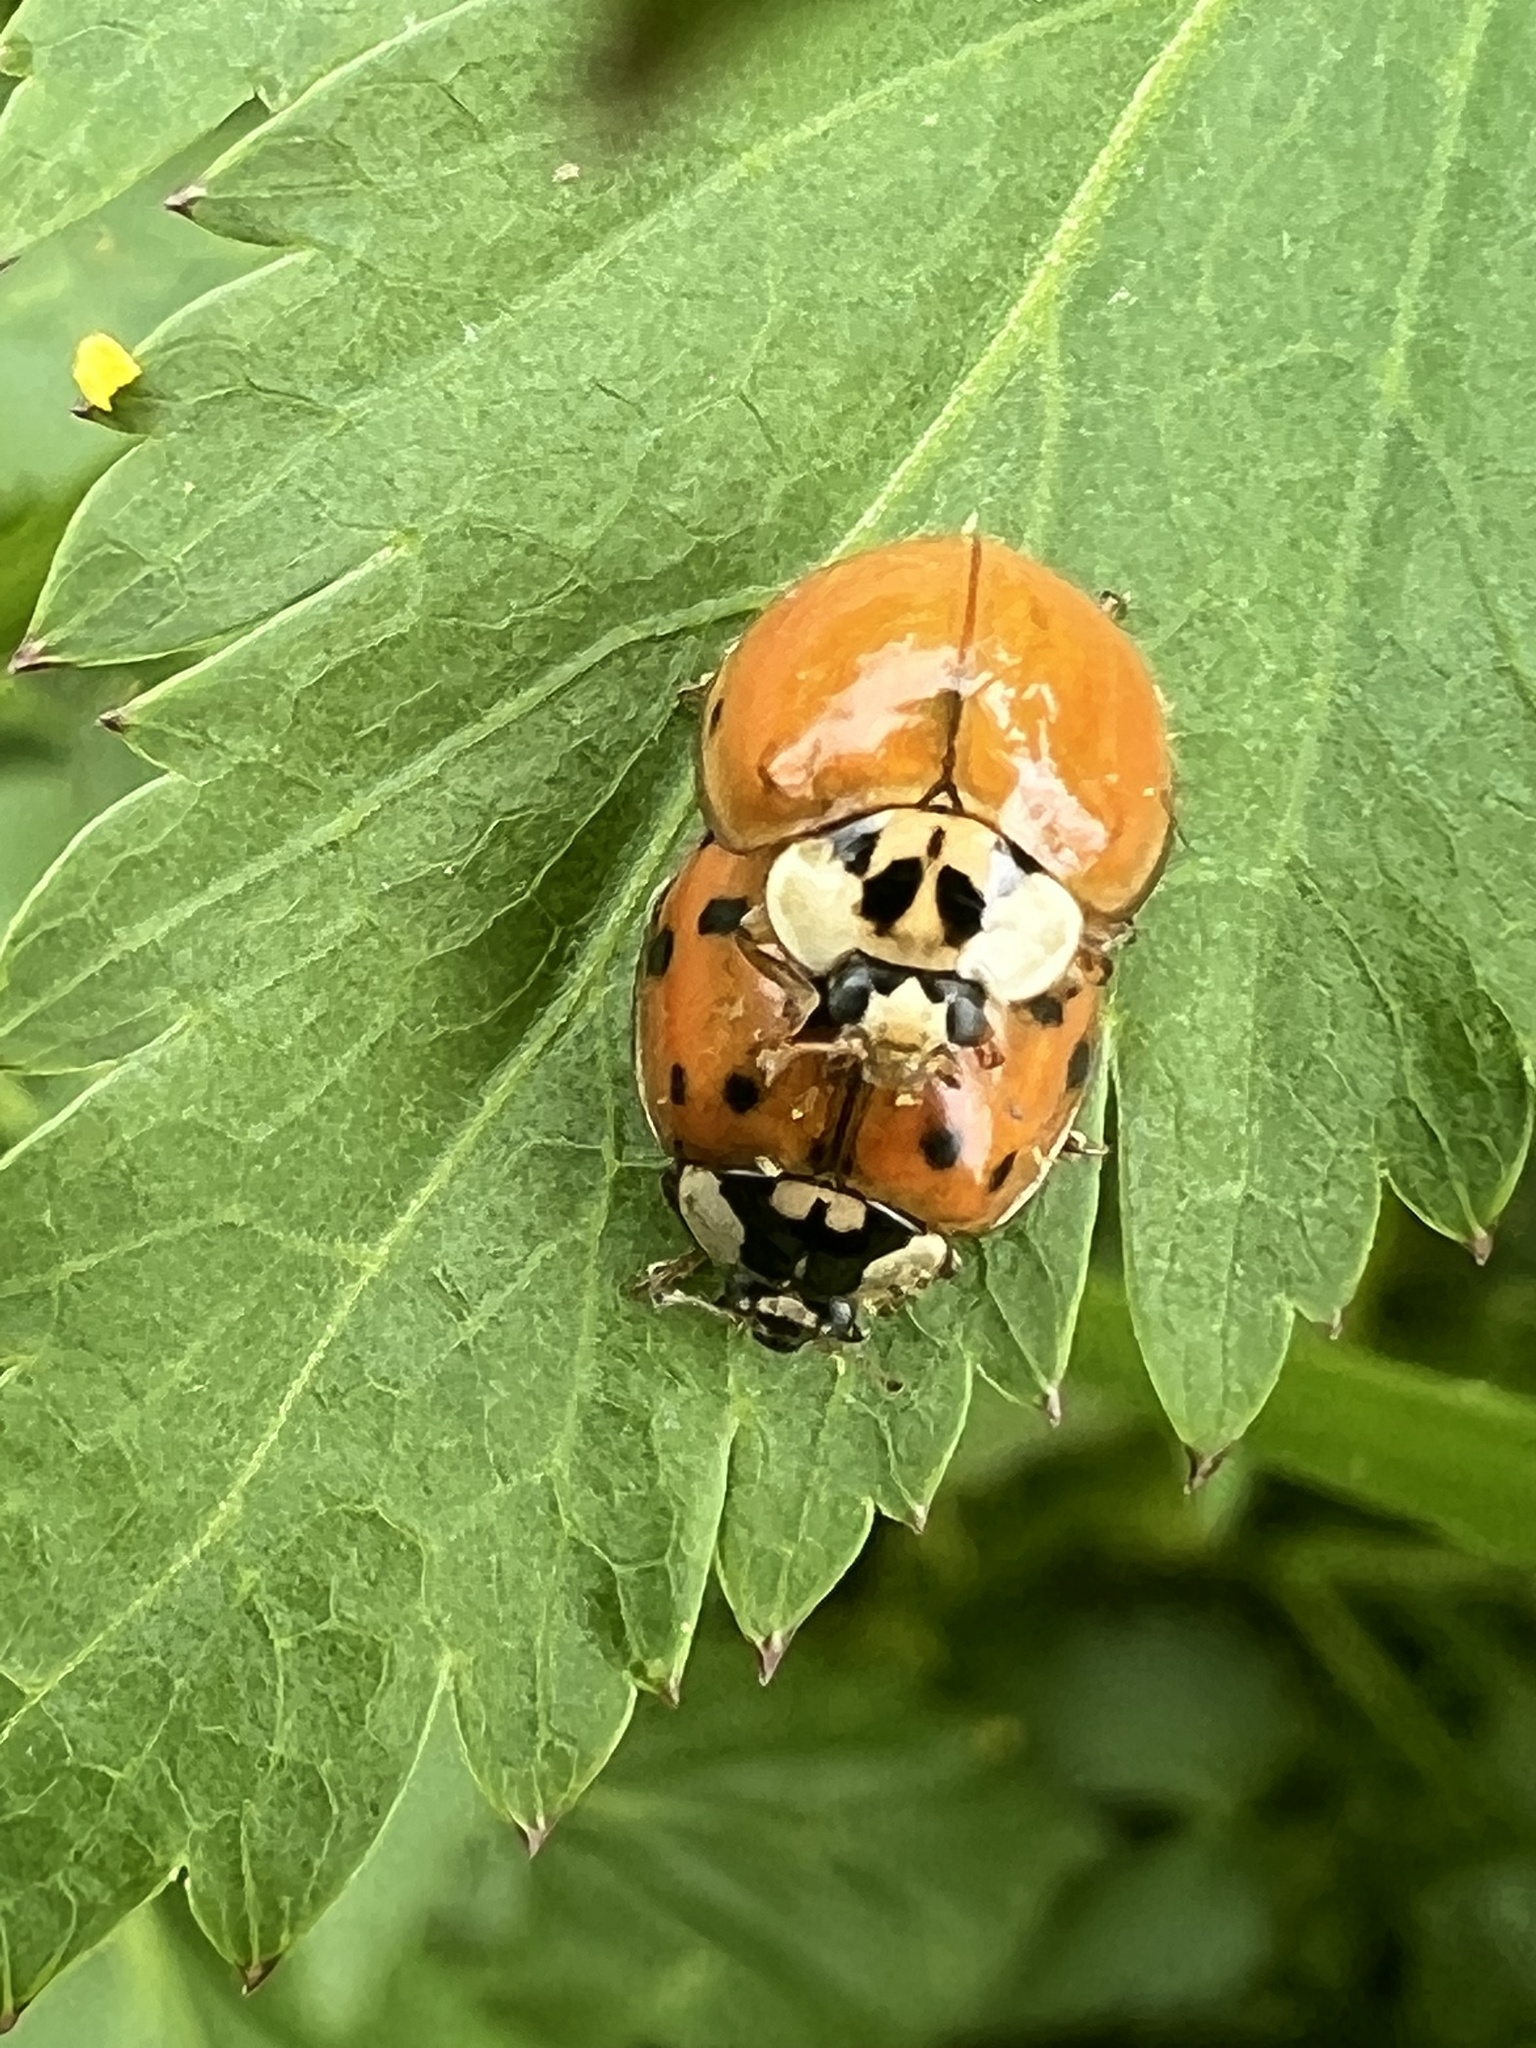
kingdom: Animalia
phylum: Arthropoda
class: Insecta
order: Coleoptera
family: Coccinellidae
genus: Harmonia
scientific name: Harmonia axyridis
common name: Harlequin ladybird
